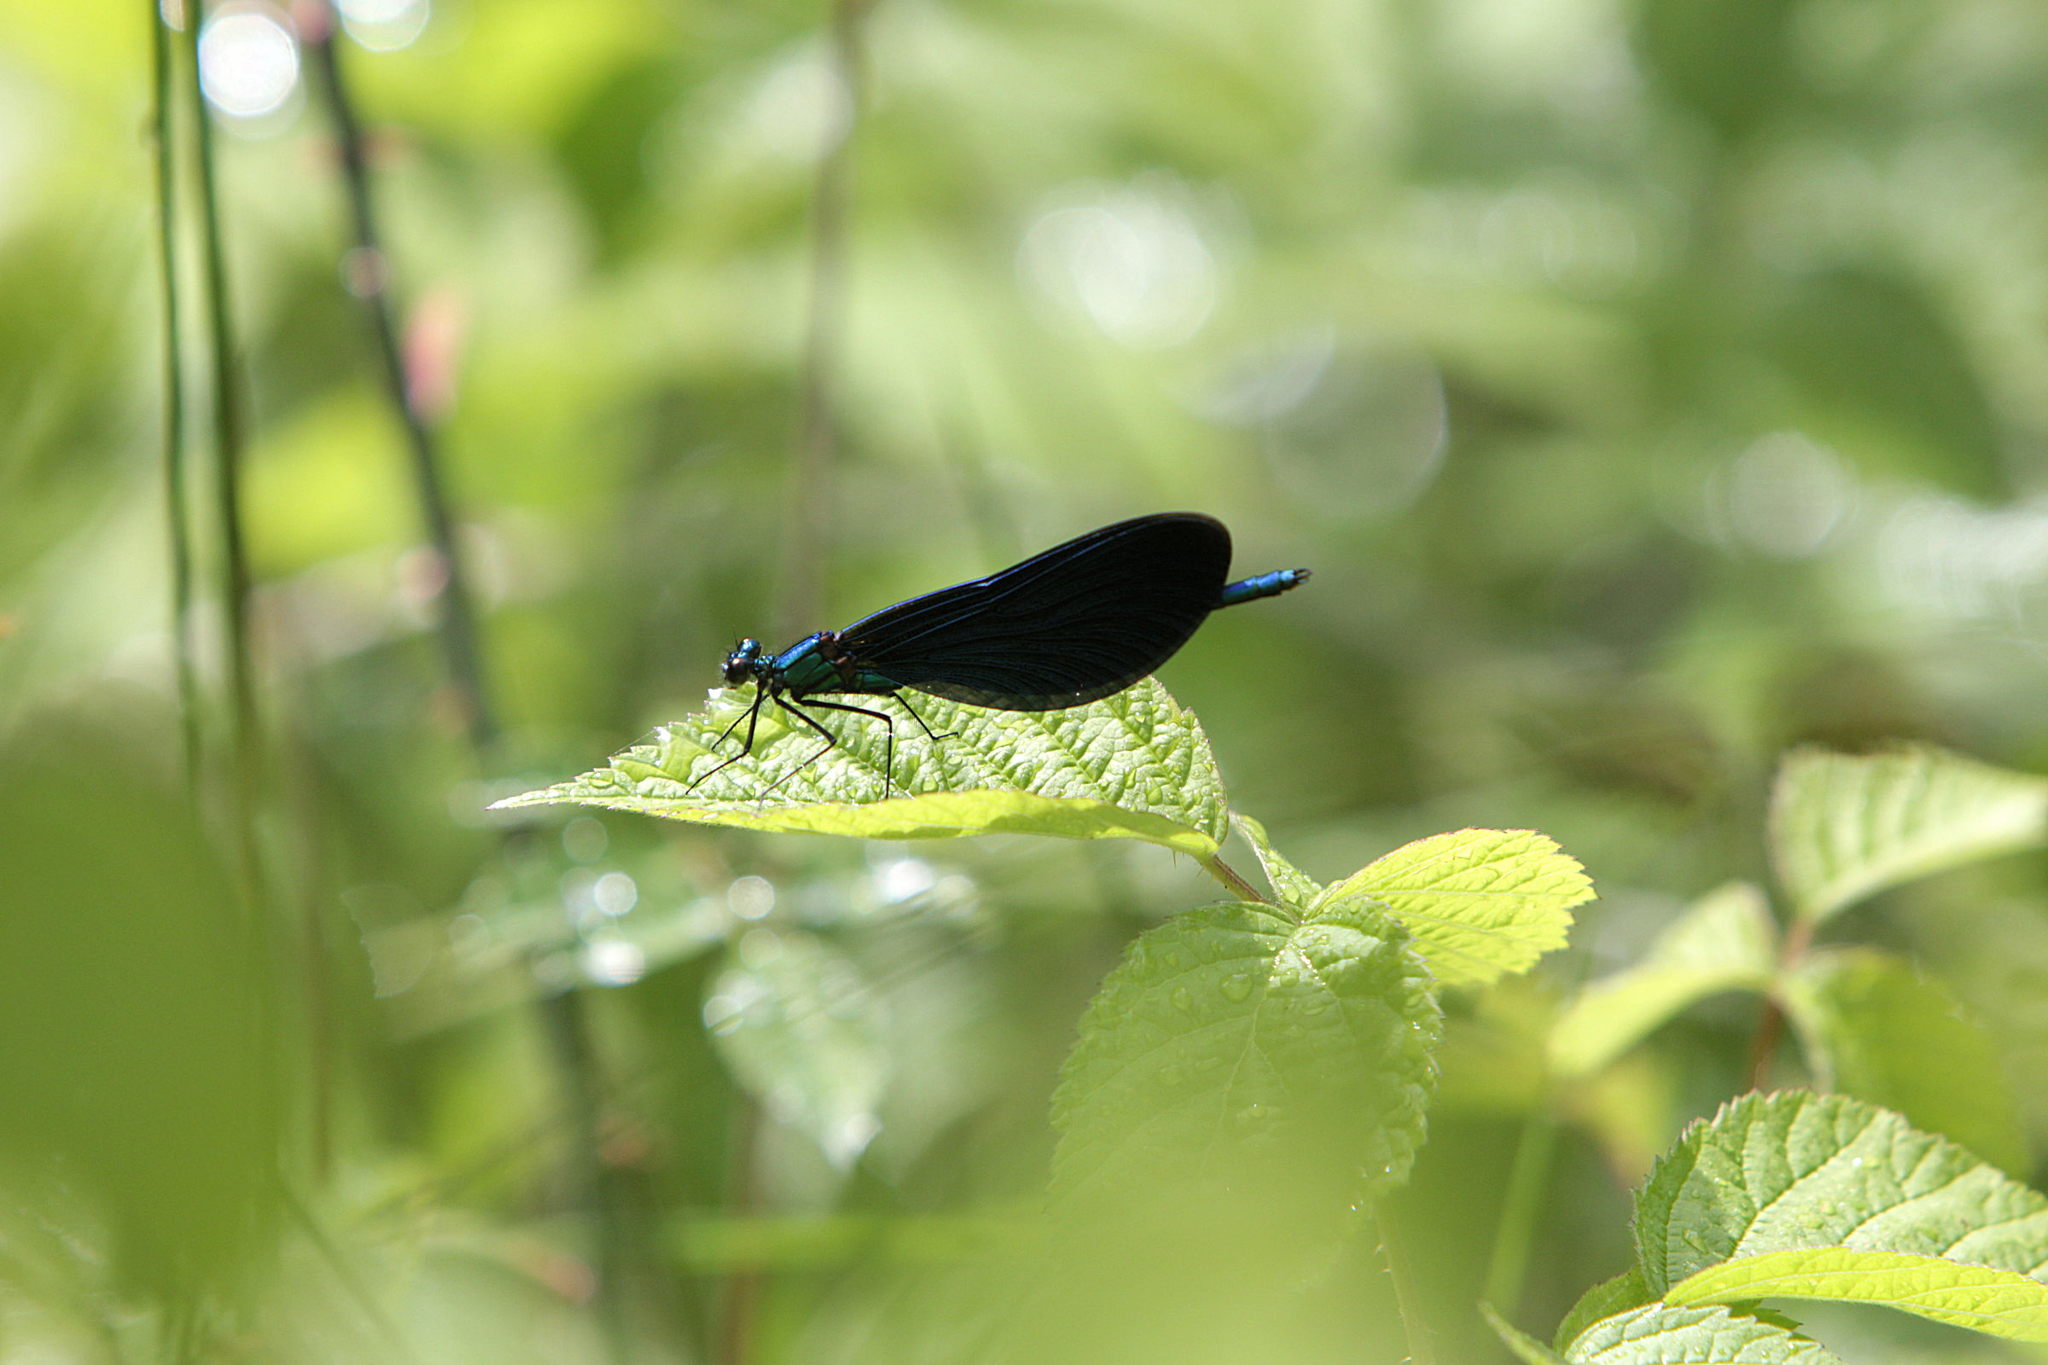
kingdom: Animalia
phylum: Arthropoda
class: Insecta
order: Odonata
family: Calopterygidae
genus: Calopteryx
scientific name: Calopteryx virgo
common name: Beautiful demoiselle
